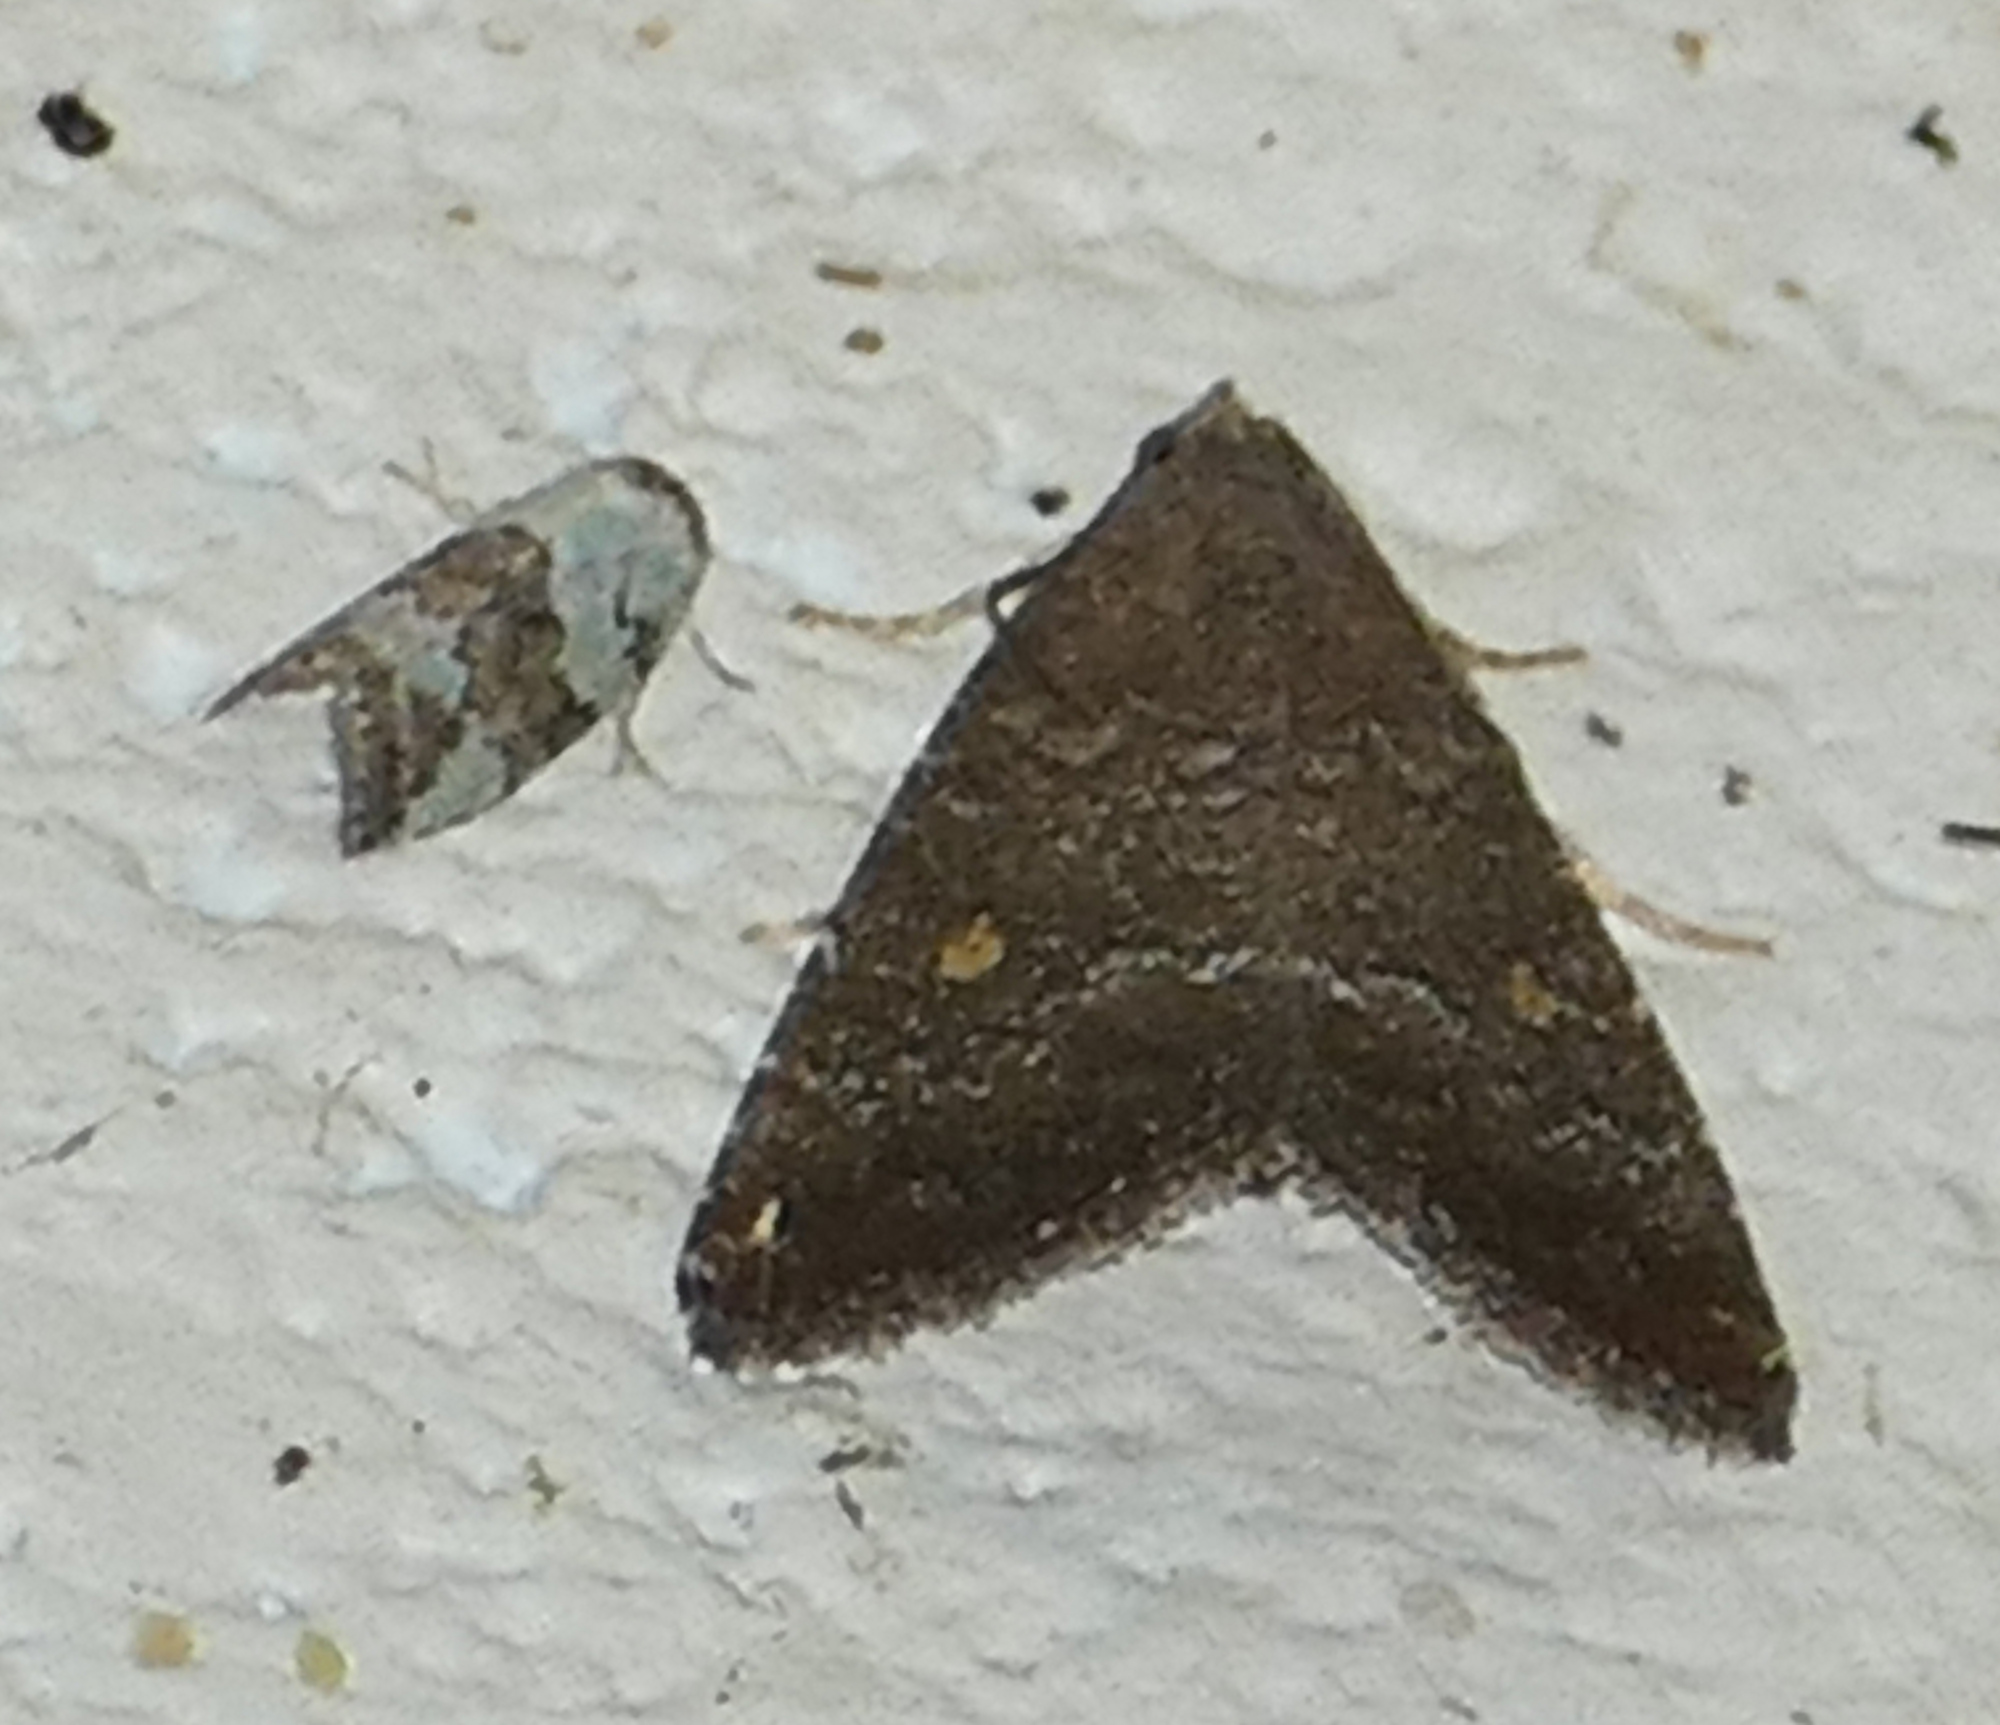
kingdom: Animalia
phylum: Arthropoda
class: Insecta
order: Lepidoptera
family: Noctuidae
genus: Amyna
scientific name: Amyna stricta
